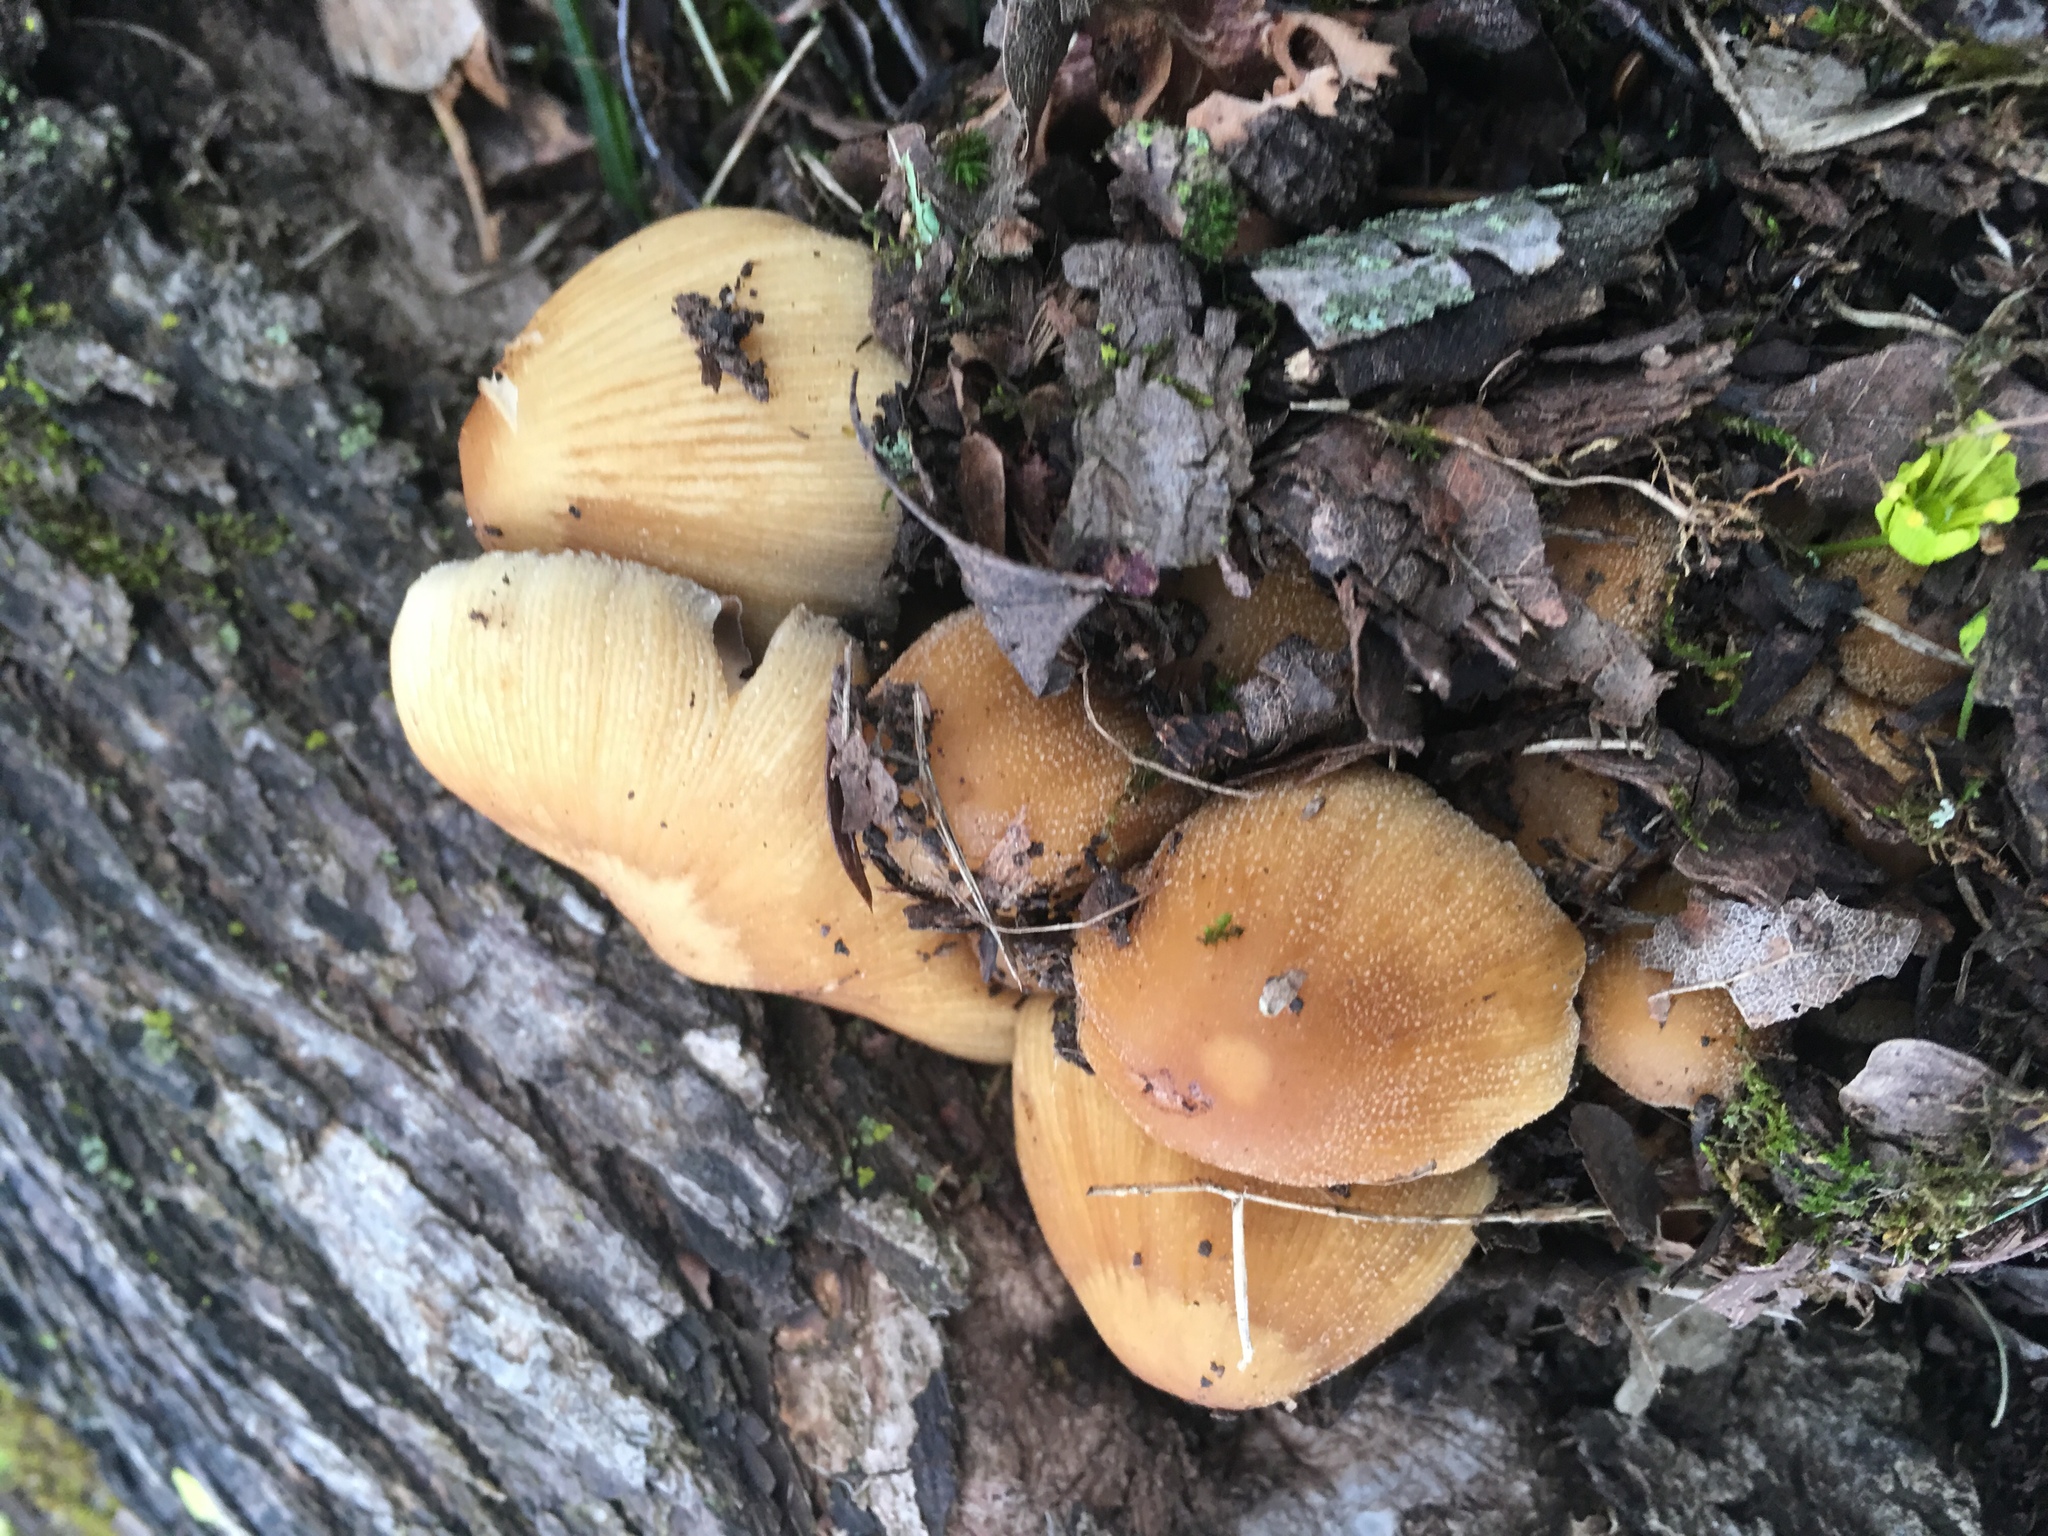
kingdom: Fungi
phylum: Basidiomycota
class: Agaricomycetes
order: Agaricales
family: Psathyrellaceae
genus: Coprinellus
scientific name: Coprinellus micaceus
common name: Glistening ink-cap
